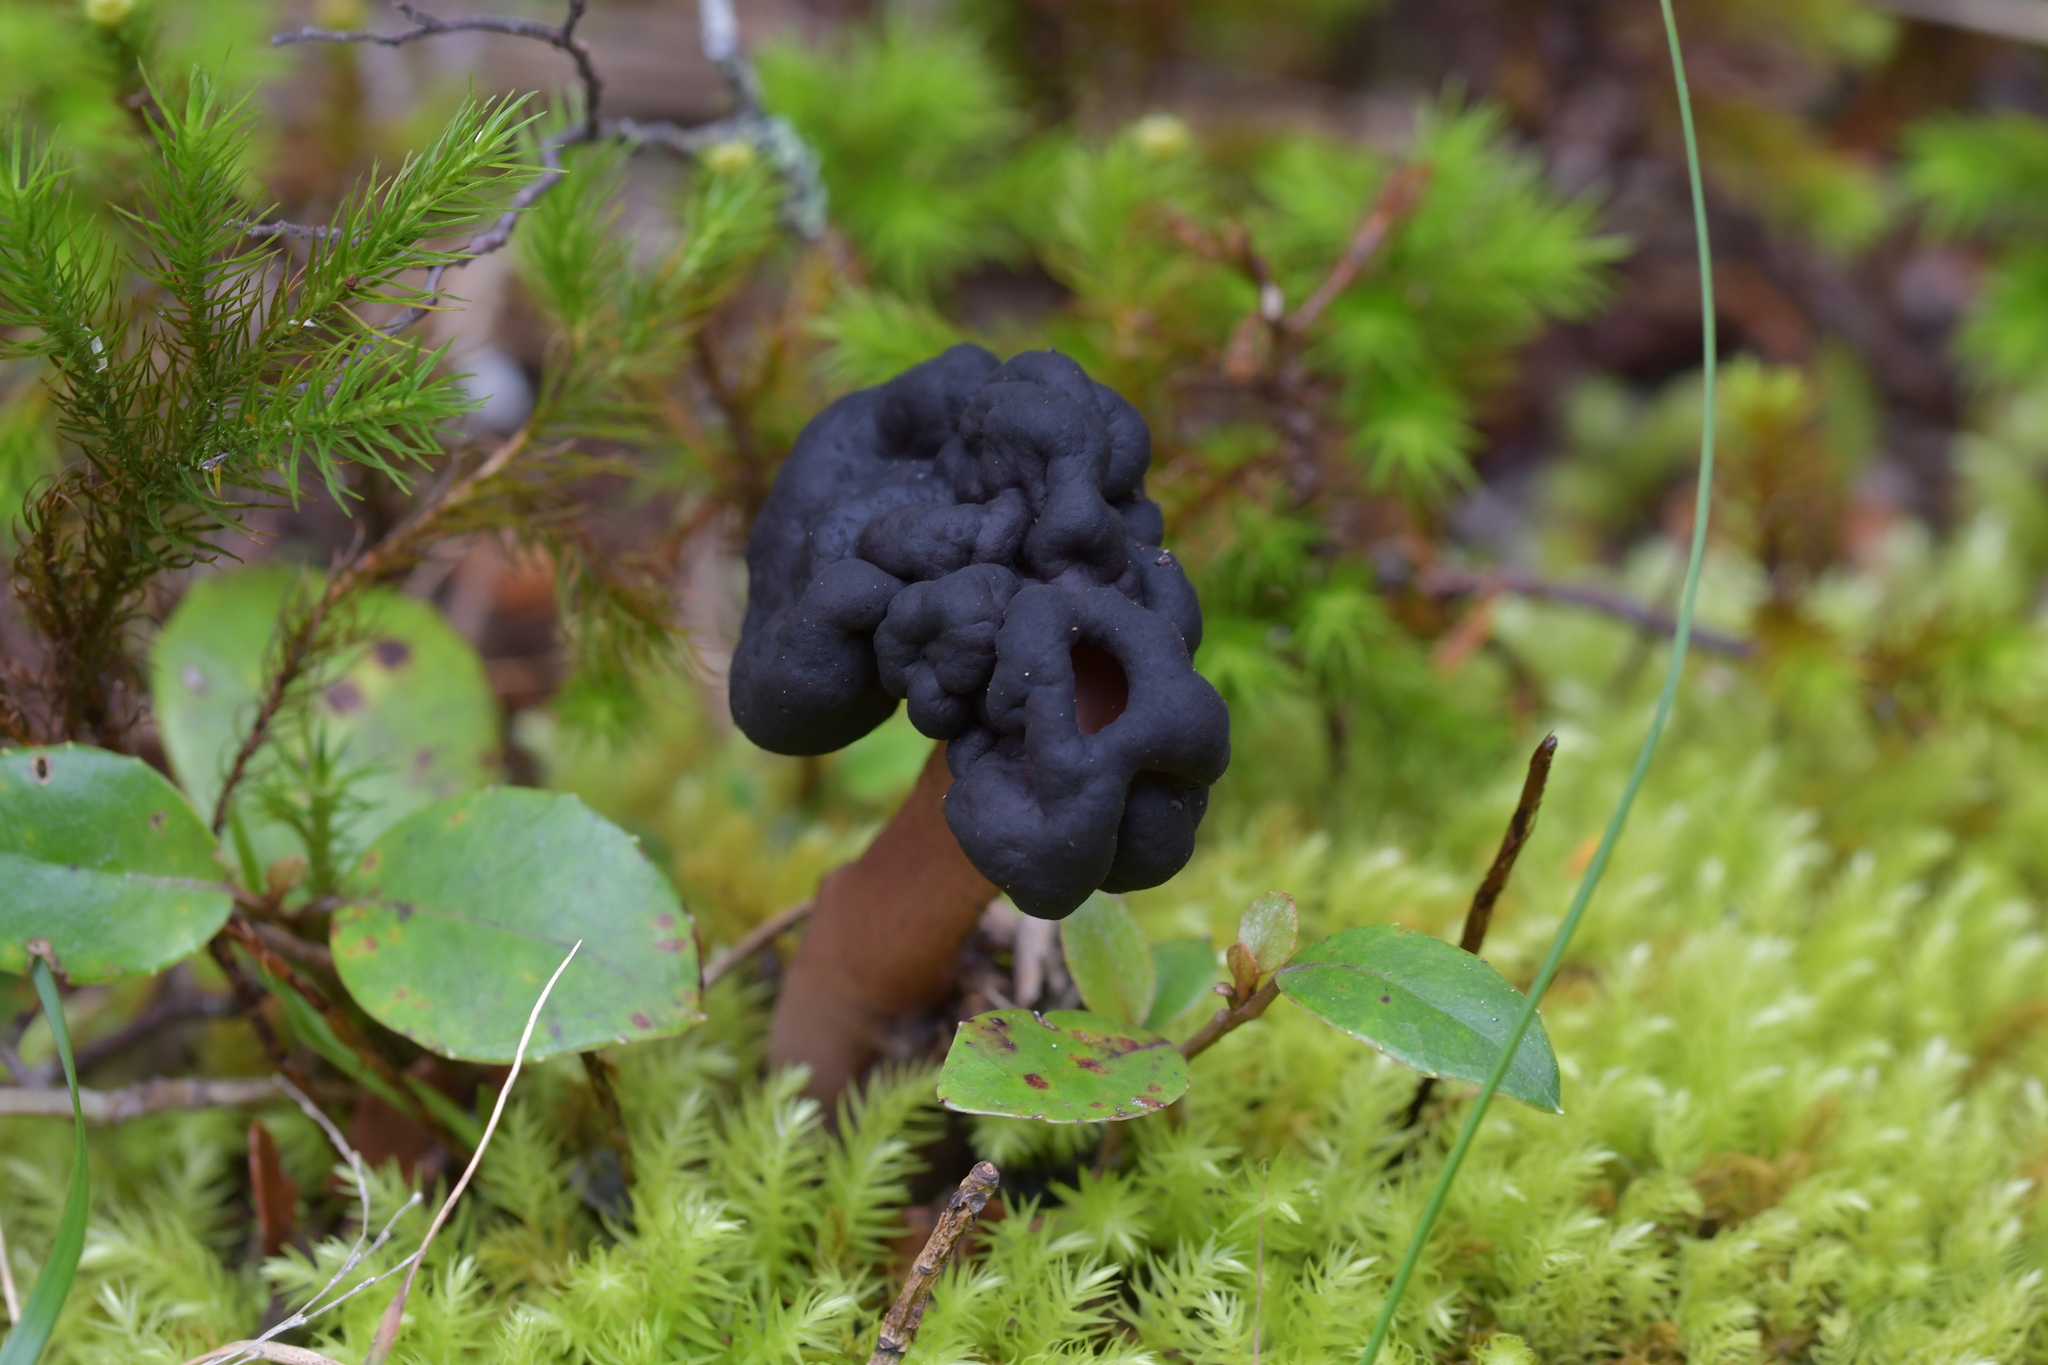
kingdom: Fungi
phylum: Ascomycota
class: Pezizomycetes
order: Pezizales
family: Discinaceae
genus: Gyromitra
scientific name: Gyromitra tasmanica
